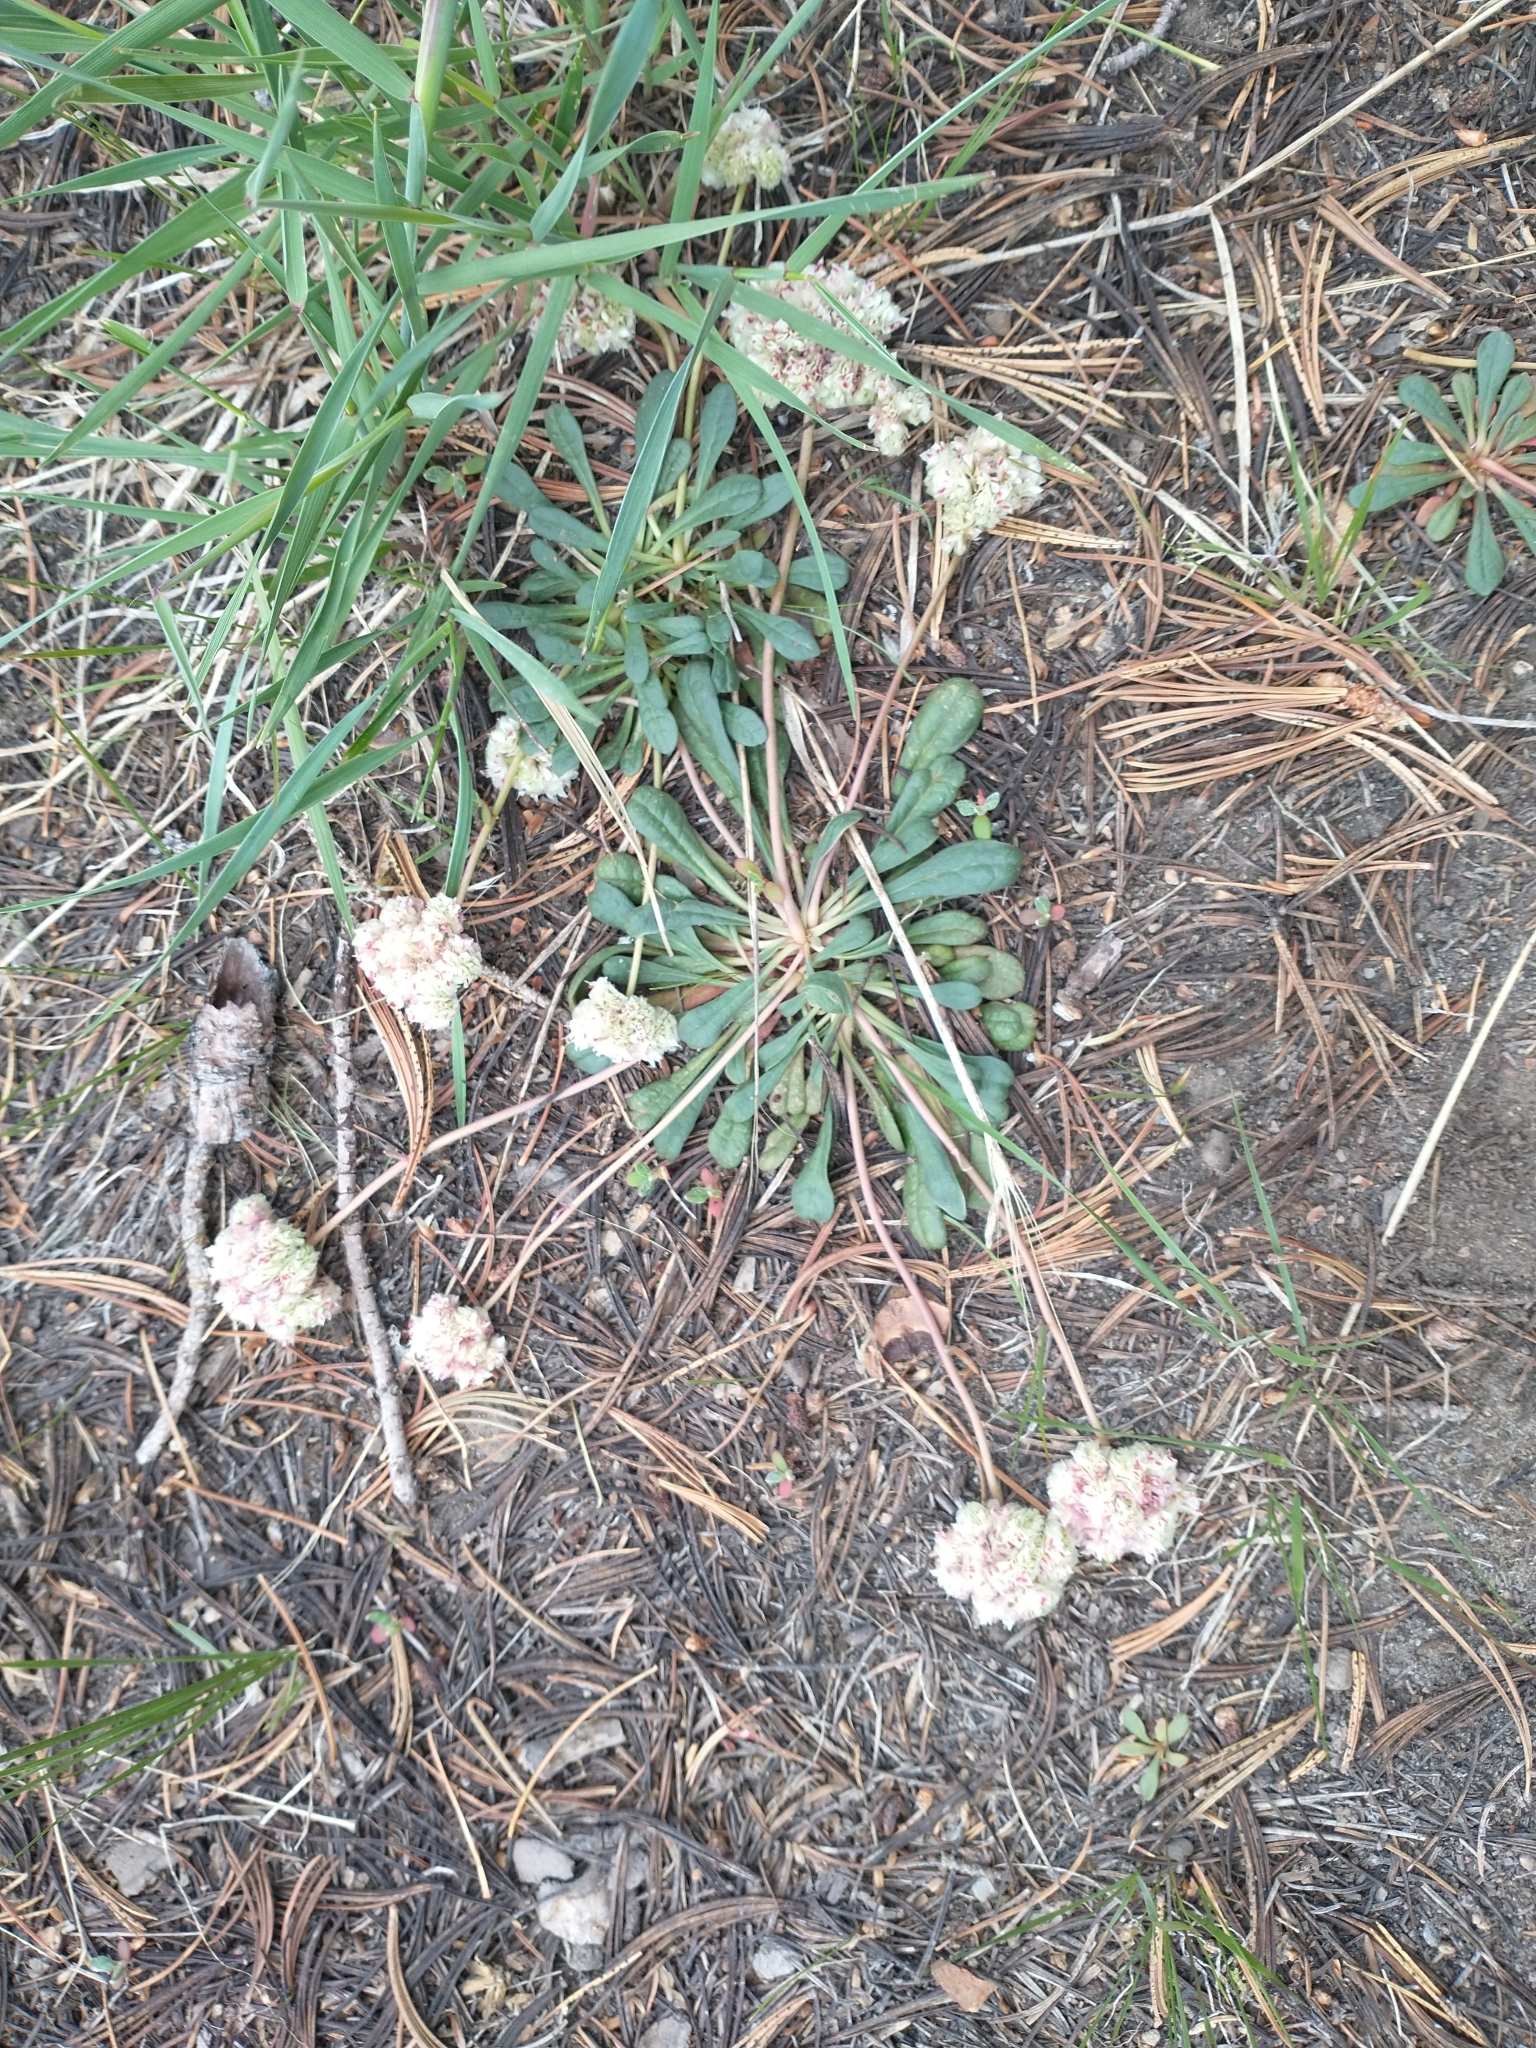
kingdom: Plantae
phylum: Tracheophyta
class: Magnoliopsida
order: Caryophyllales
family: Montiaceae
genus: Calyptridium
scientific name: Calyptridium monospermum
